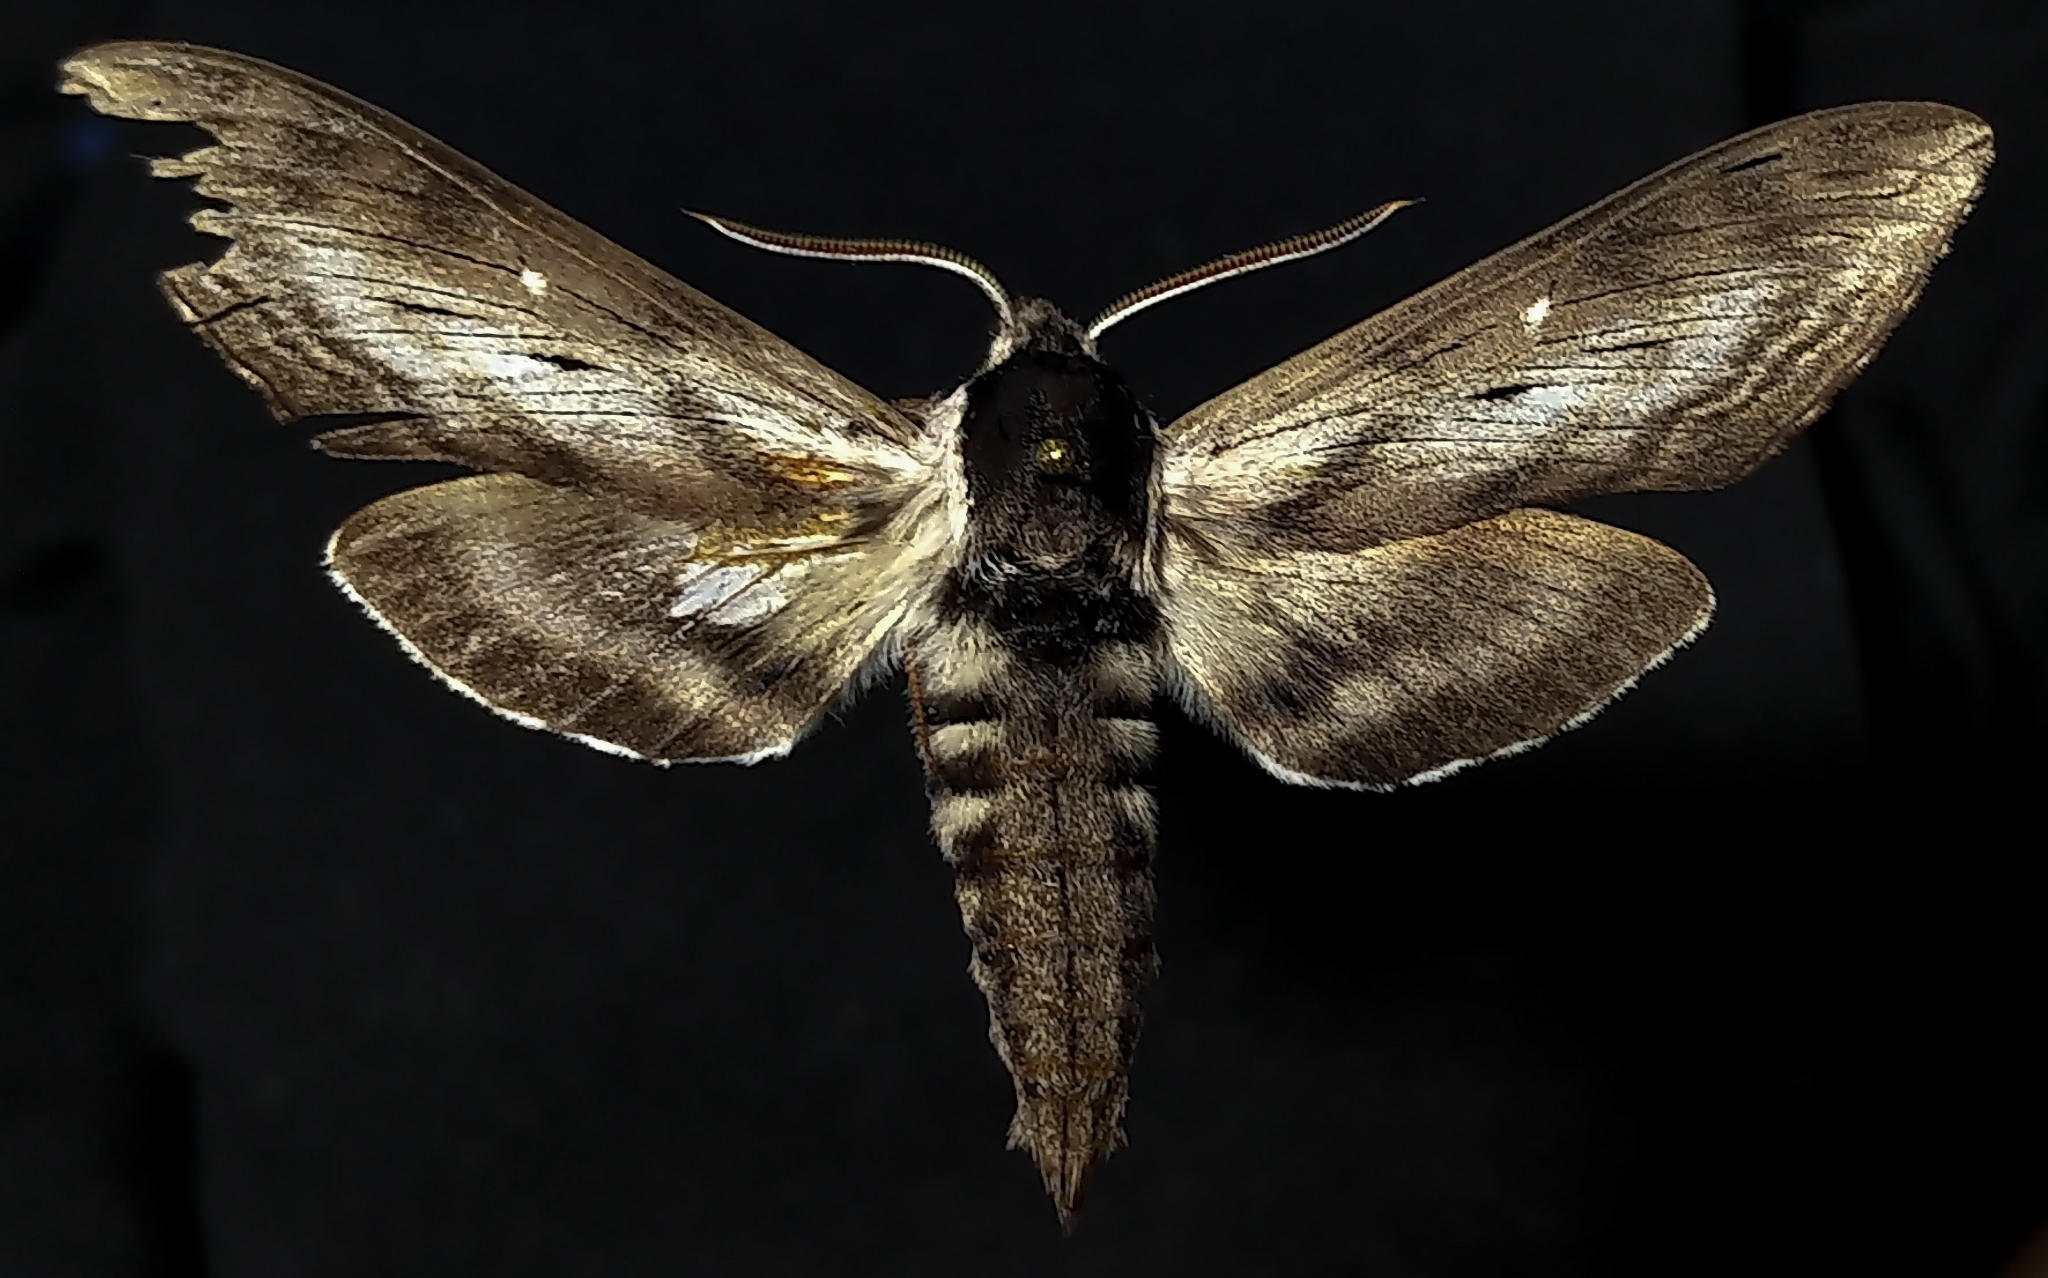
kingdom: Animalia
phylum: Arthropoda
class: Insecta
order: Lepidoptera
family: Sphingidae
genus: Sphinx
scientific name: Sphinx gordius
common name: Apple sphinx
